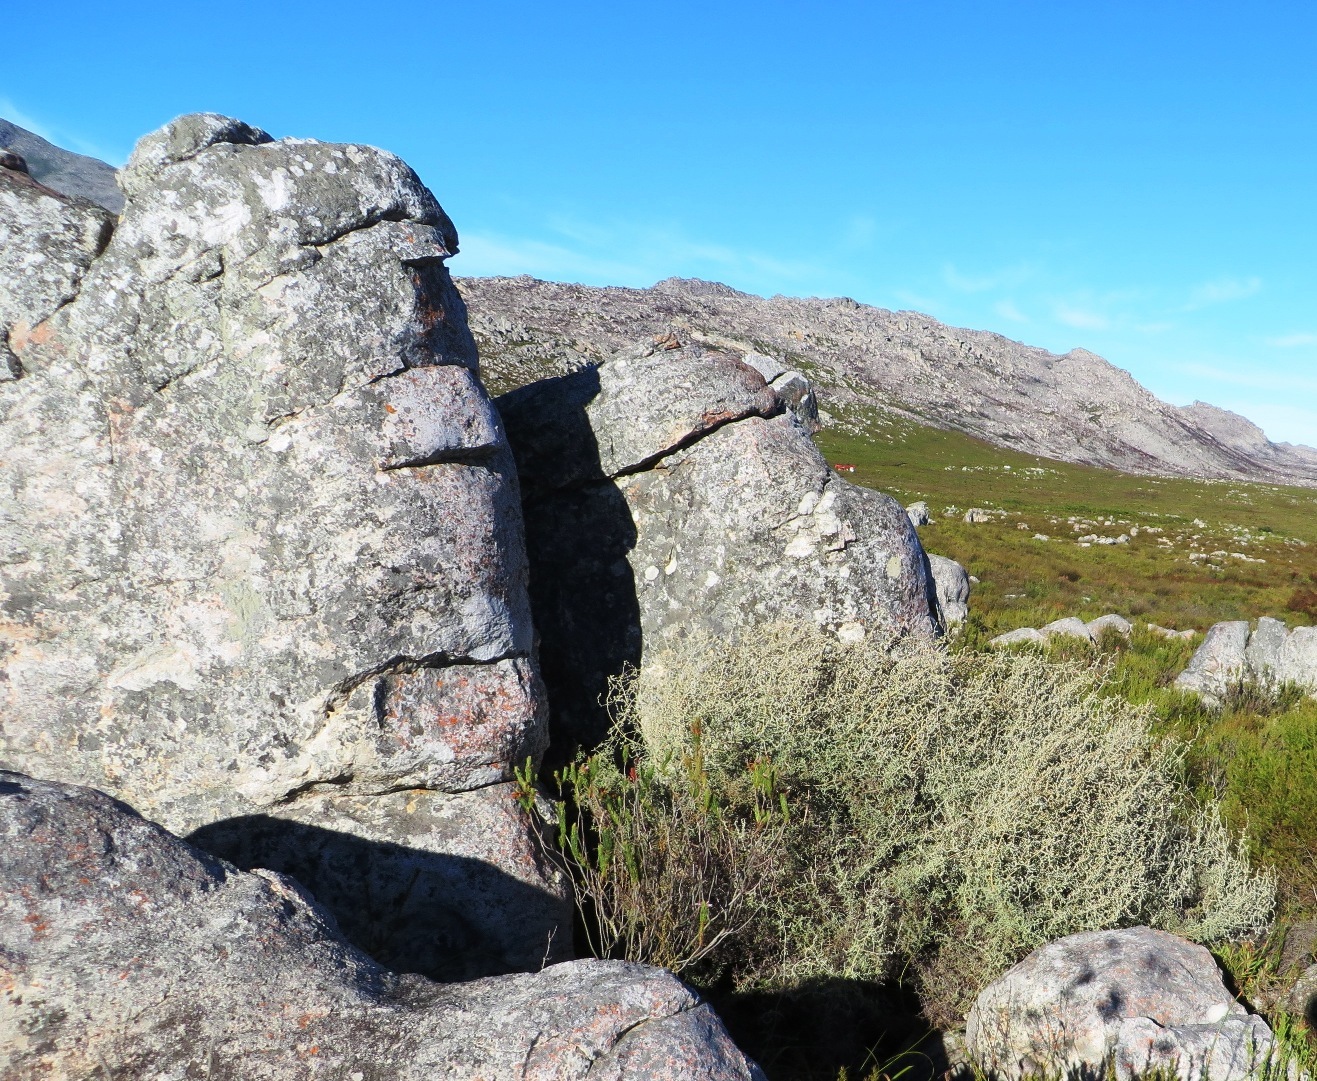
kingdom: Plantae
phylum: Tracheophyta
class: Magnoliopsida
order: Asterales
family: Asteraceae
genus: Seriphium
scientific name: Seriphium plumosum
